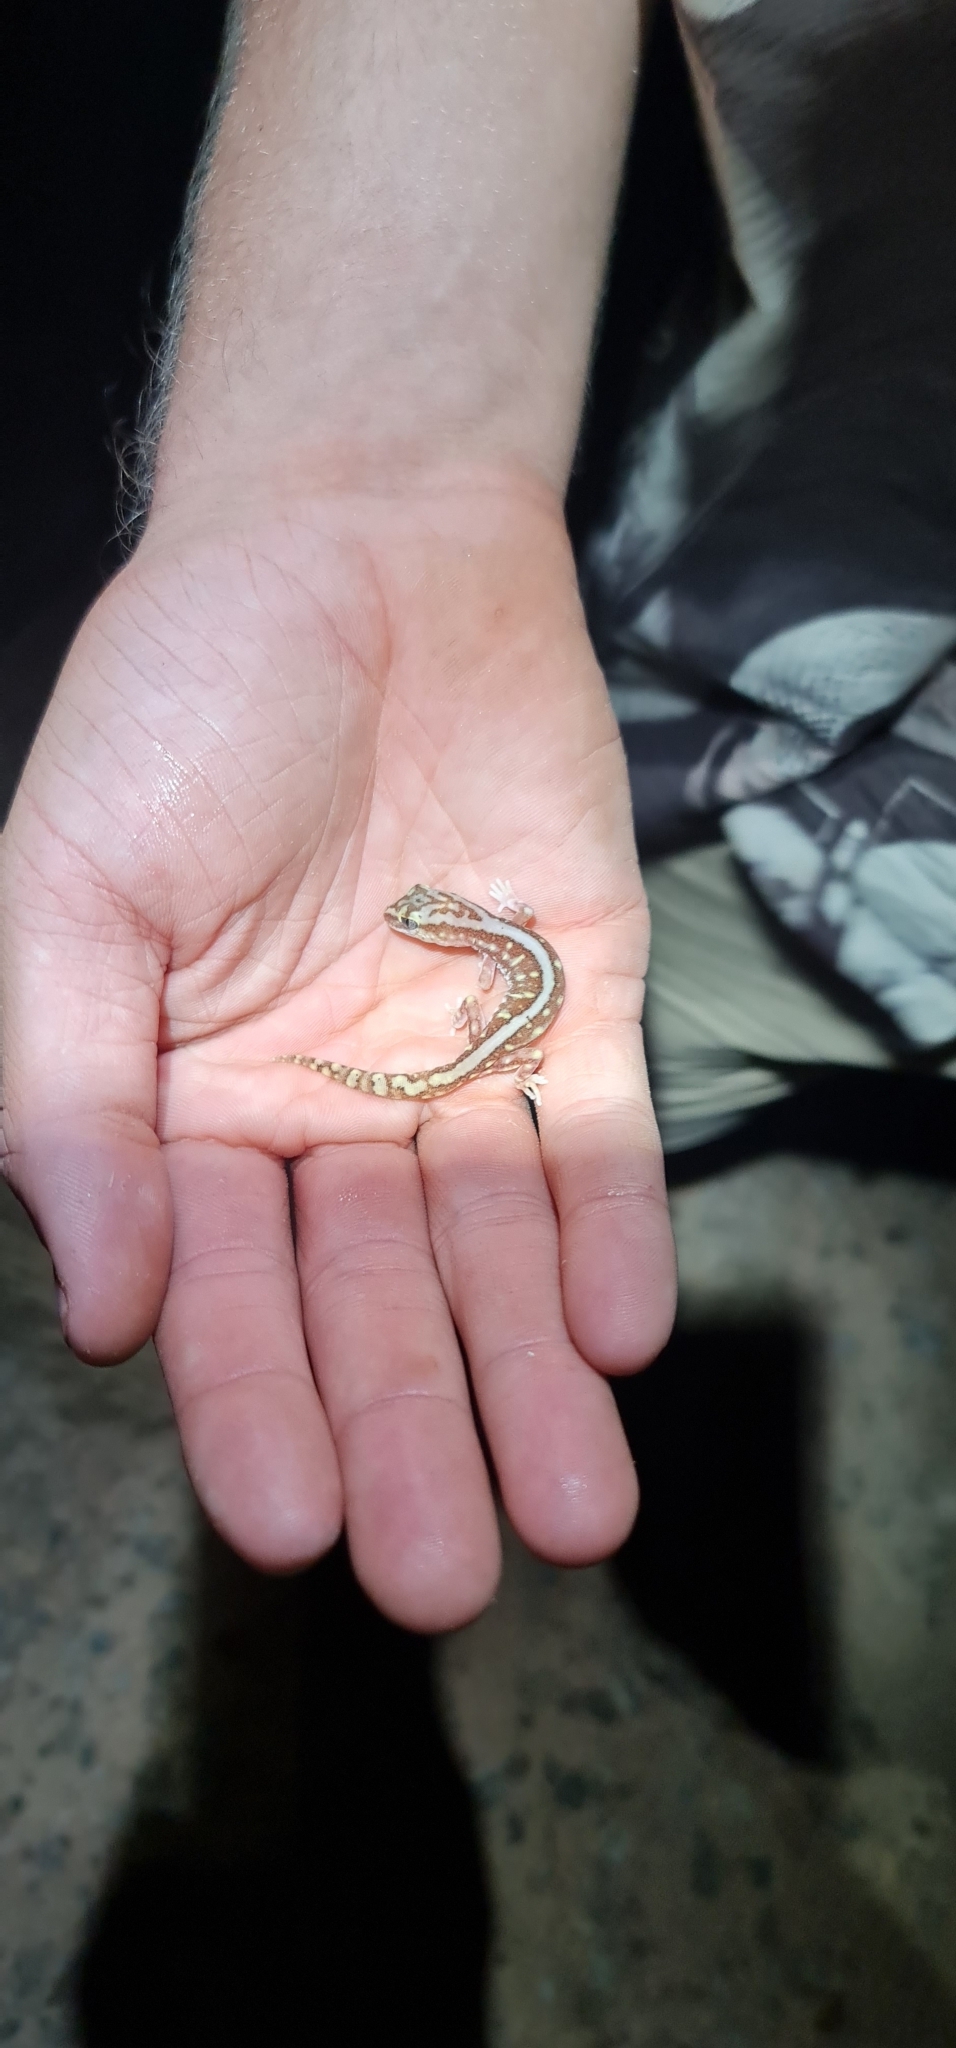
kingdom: Animalia
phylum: Chordata
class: Squamata
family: Diplodactylidae
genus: Lucasium
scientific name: Lucasium microplax
